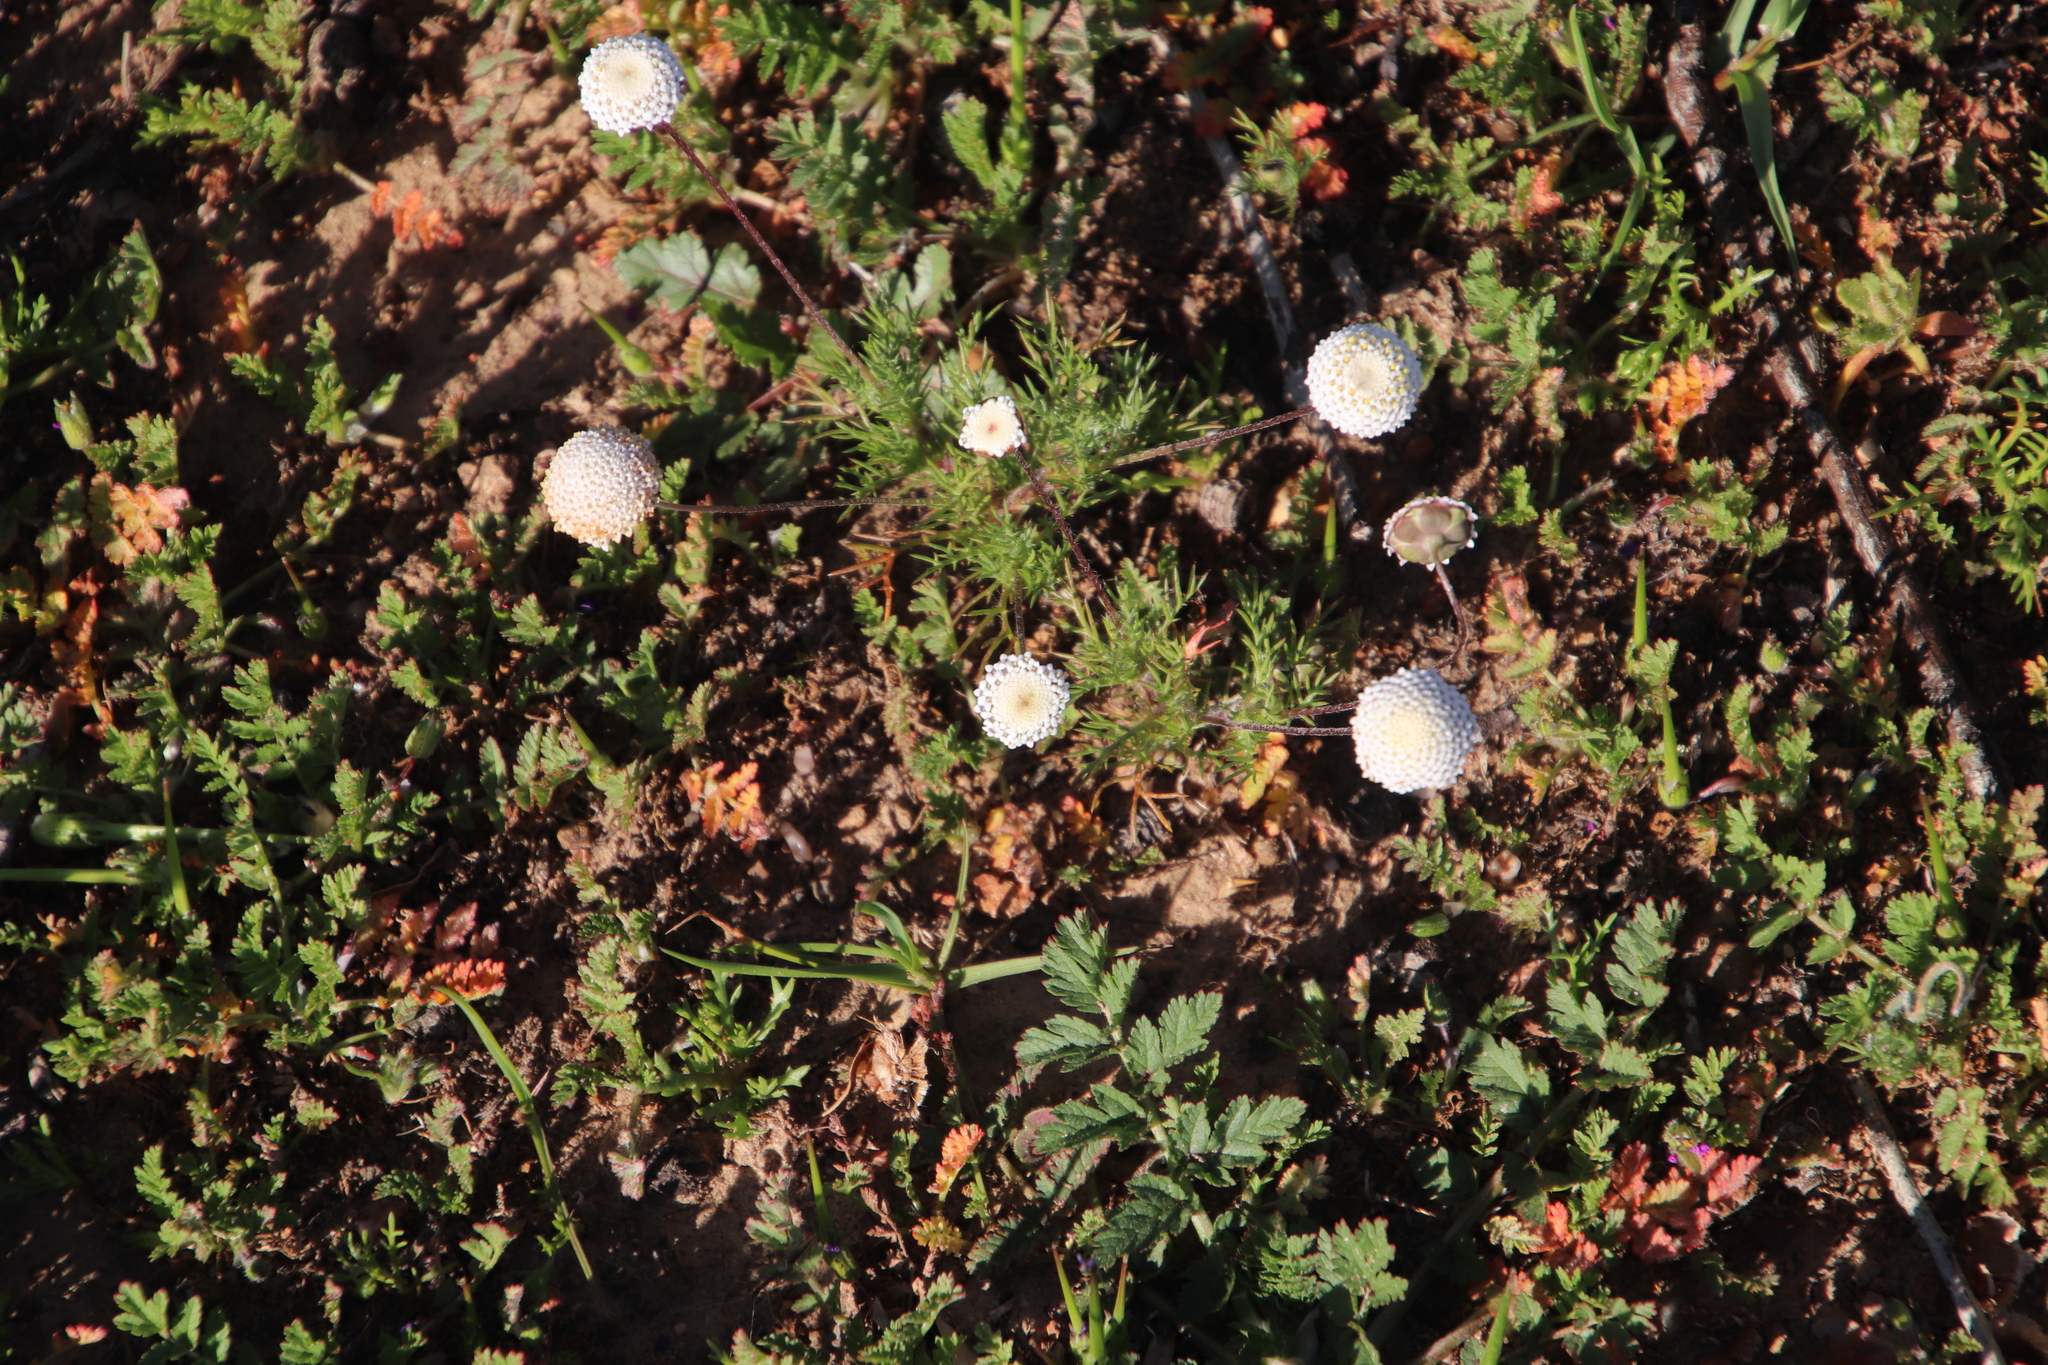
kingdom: Plantae
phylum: Tracheophyta
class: Magnoliopsida
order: Asterales
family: Asteraceae
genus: Cotula
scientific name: Cotula nudicaulis
